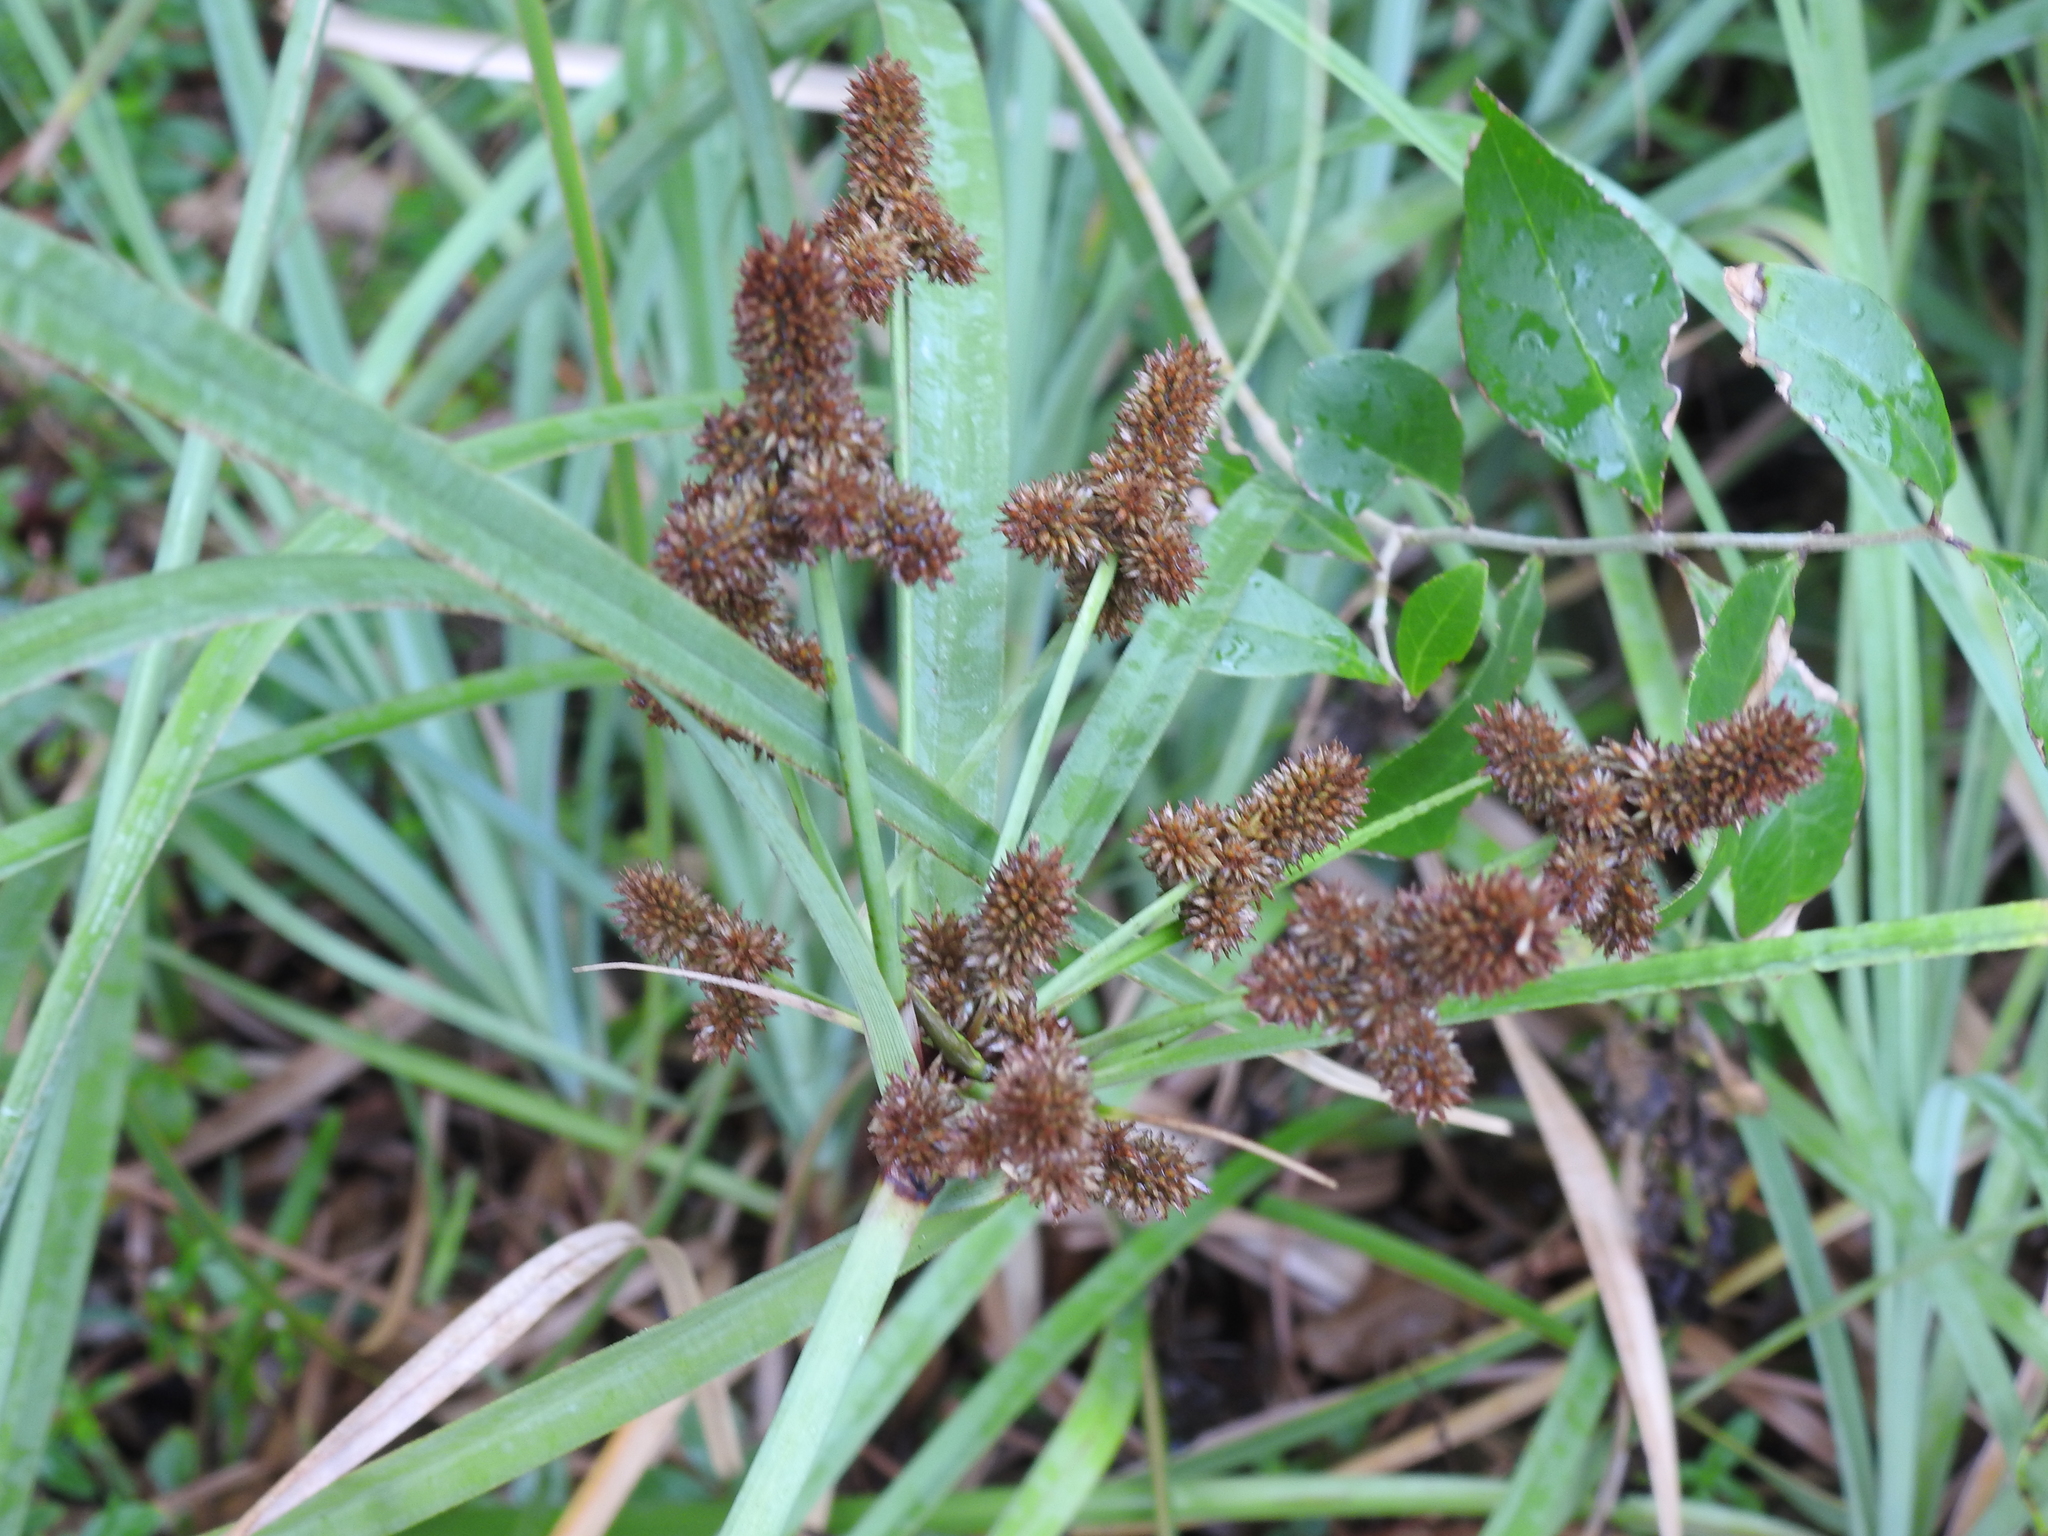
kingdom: Plantae
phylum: Tracheophyta
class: Liliopsida
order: Poales
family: Cyperaceae
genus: Cyperus
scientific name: Cyperus ligularis
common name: Swamp flat sedge
